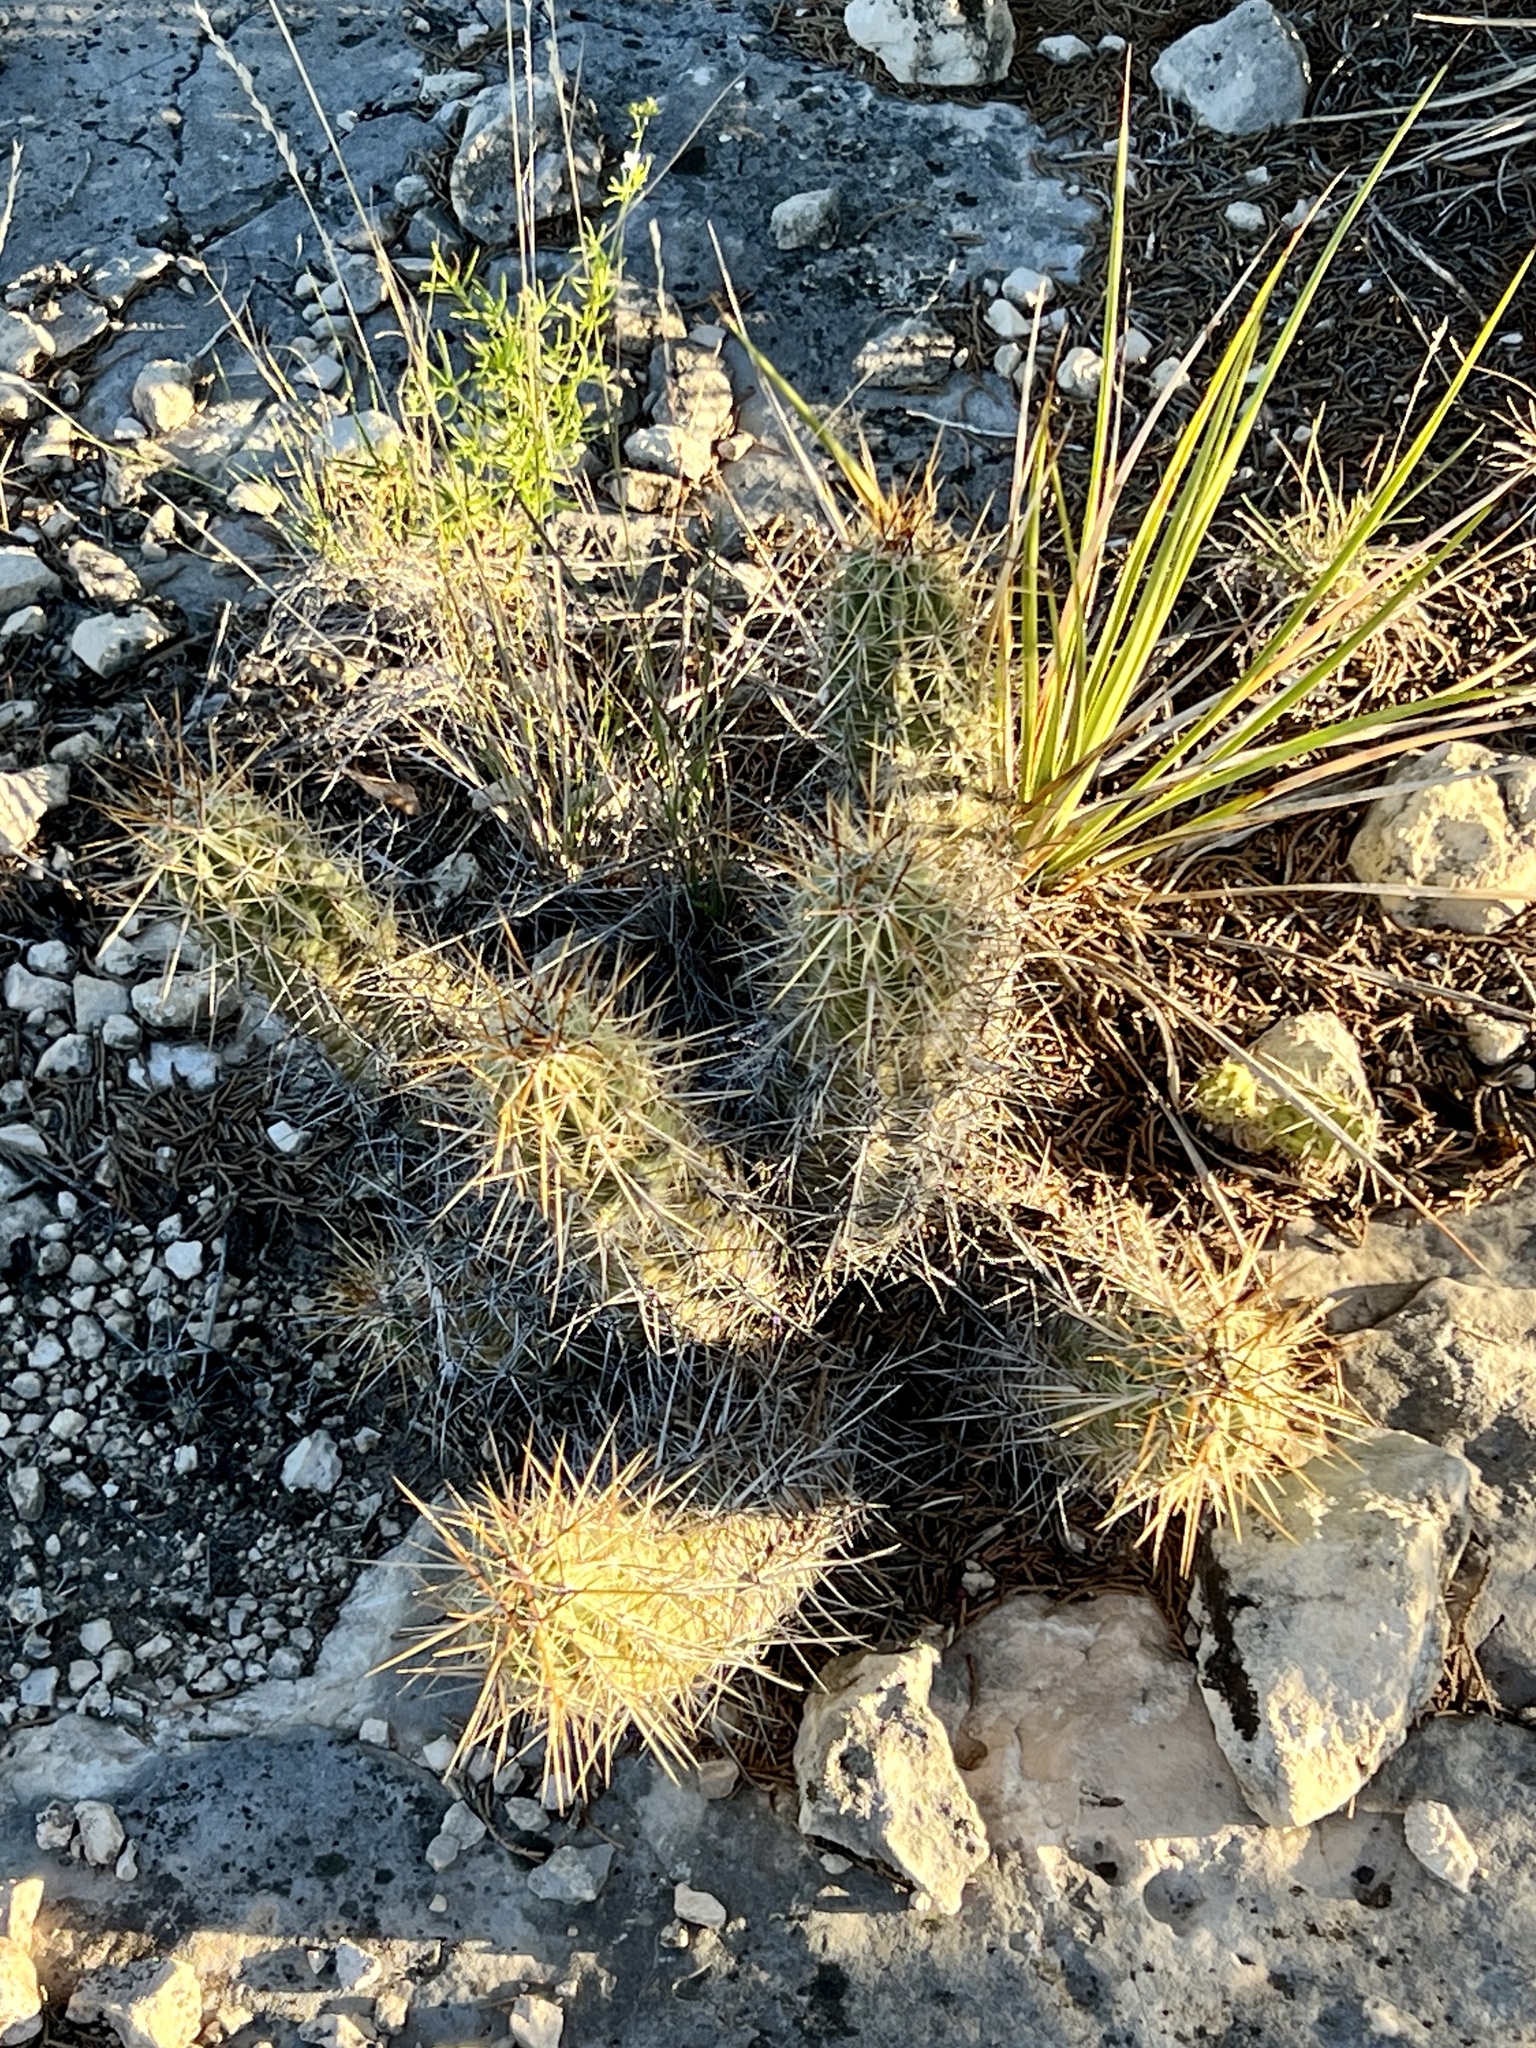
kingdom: Plantae
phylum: Tracheophyta
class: Magnoliopsida
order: Caryophyllales
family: Cactaceae
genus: Echinocereus
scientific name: Echinocereus enneacanthus
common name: Pitaya
